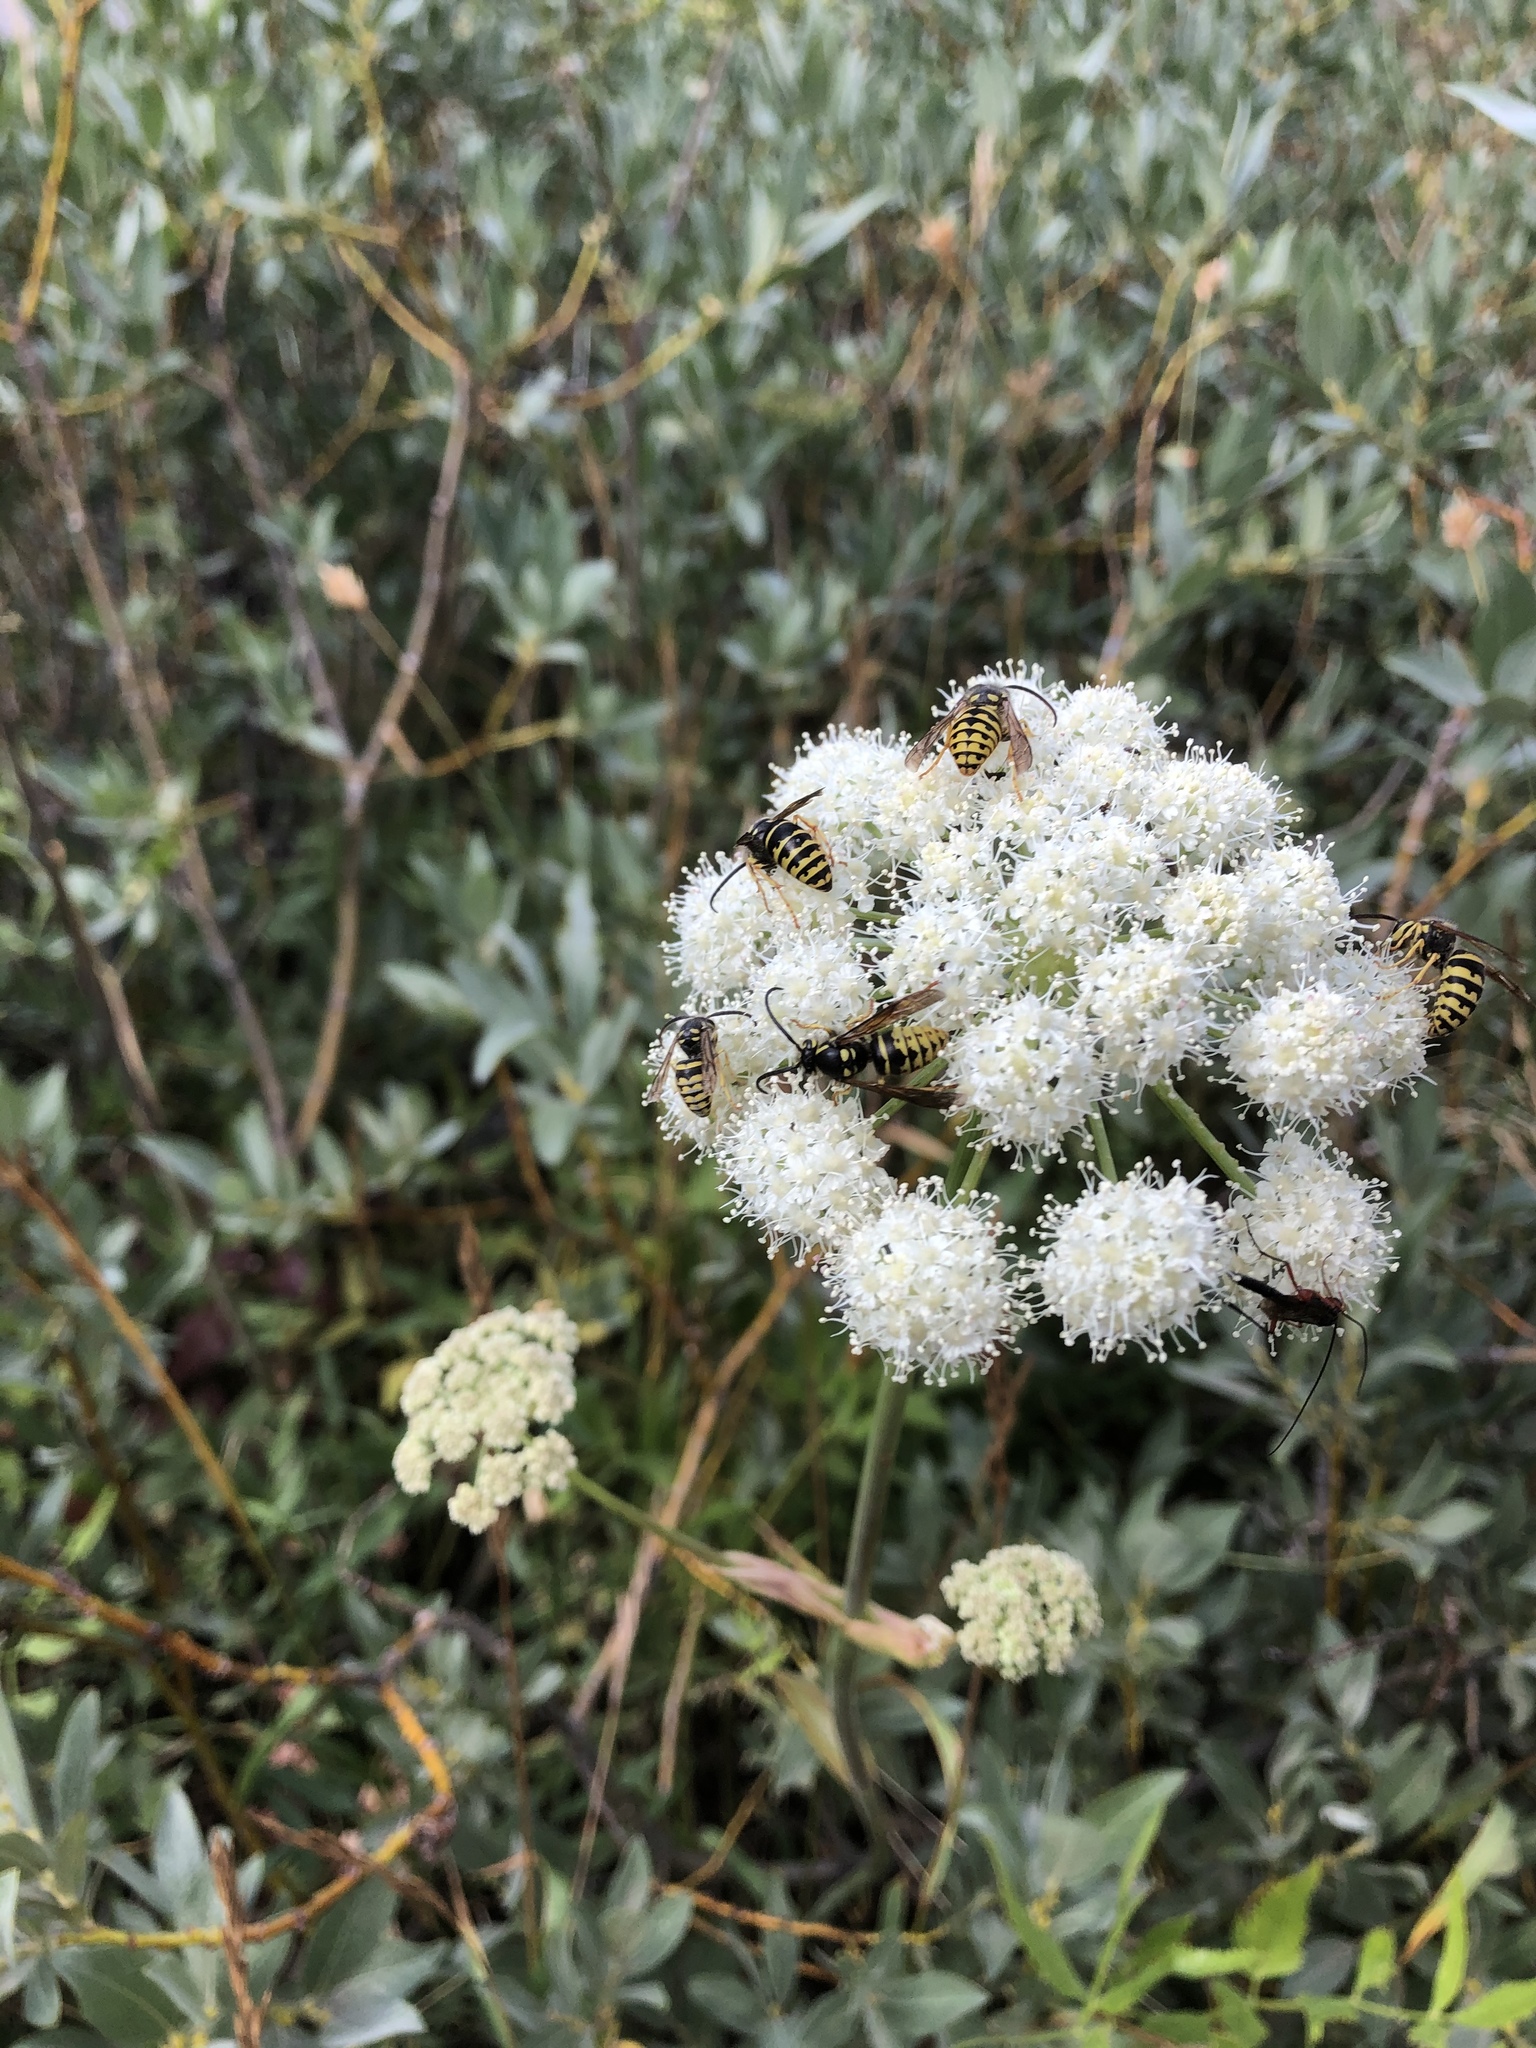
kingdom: Plantae
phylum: Tracheophyta
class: Magnoliopsida
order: Apiales
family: Apiaceae
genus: Angelica
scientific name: Angelica breweri
